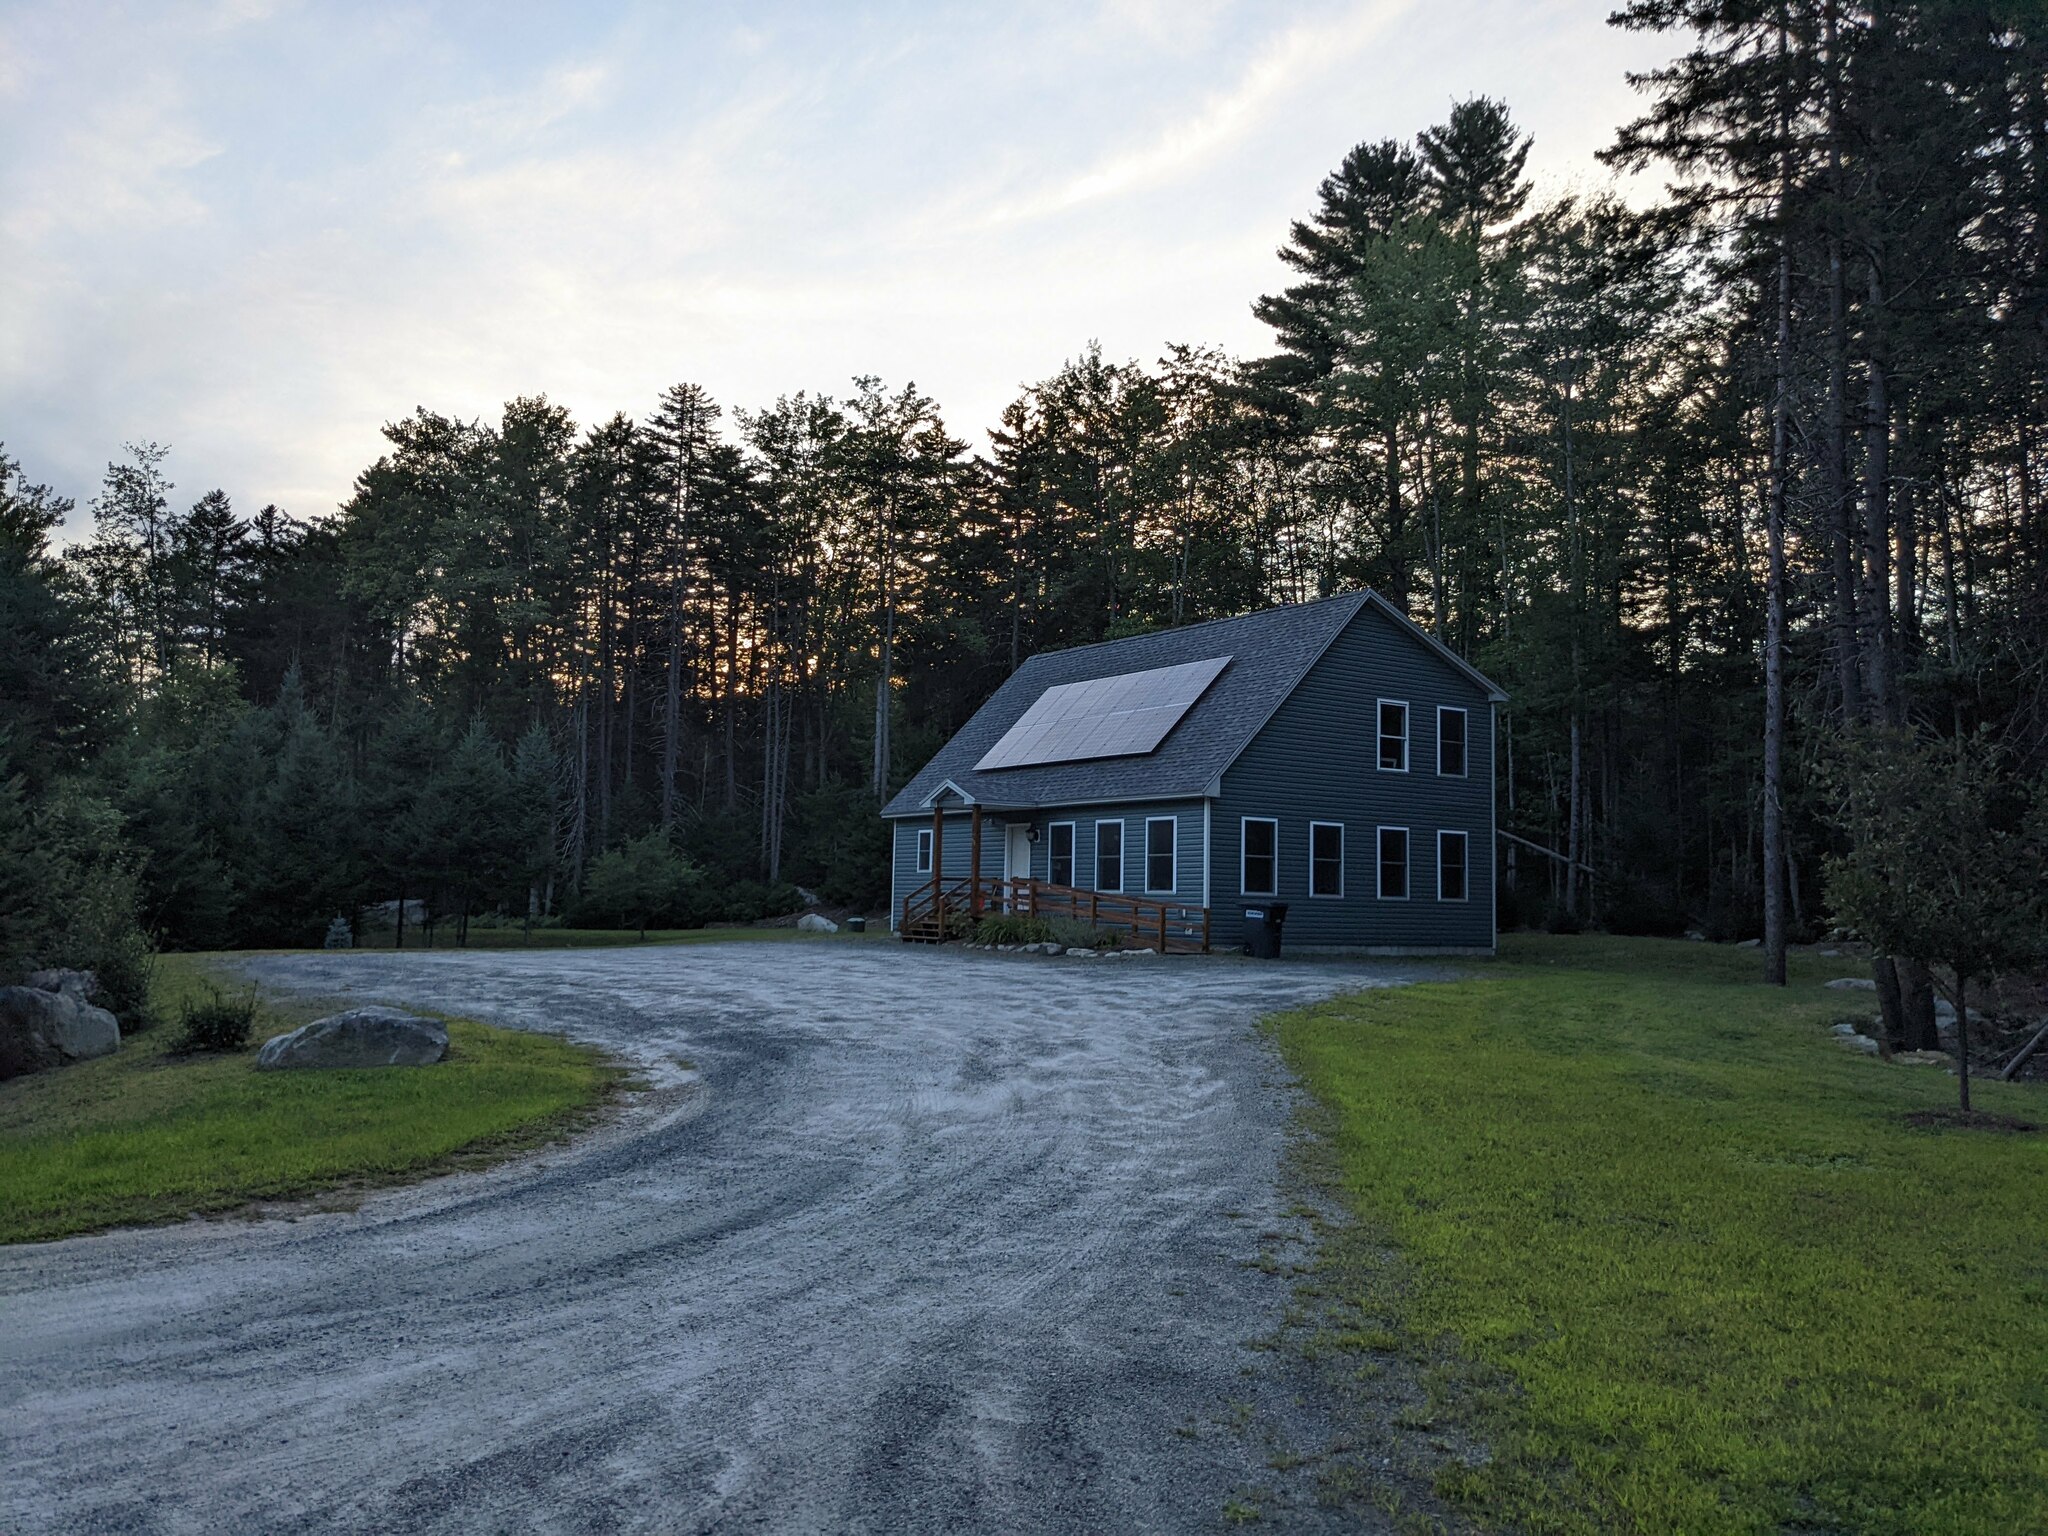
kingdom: Plantae
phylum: Tracheophyta
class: Pinopsida
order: Pinales
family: Pinaceae
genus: Pinus
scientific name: Pinus strobus
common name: Weymouth pine
